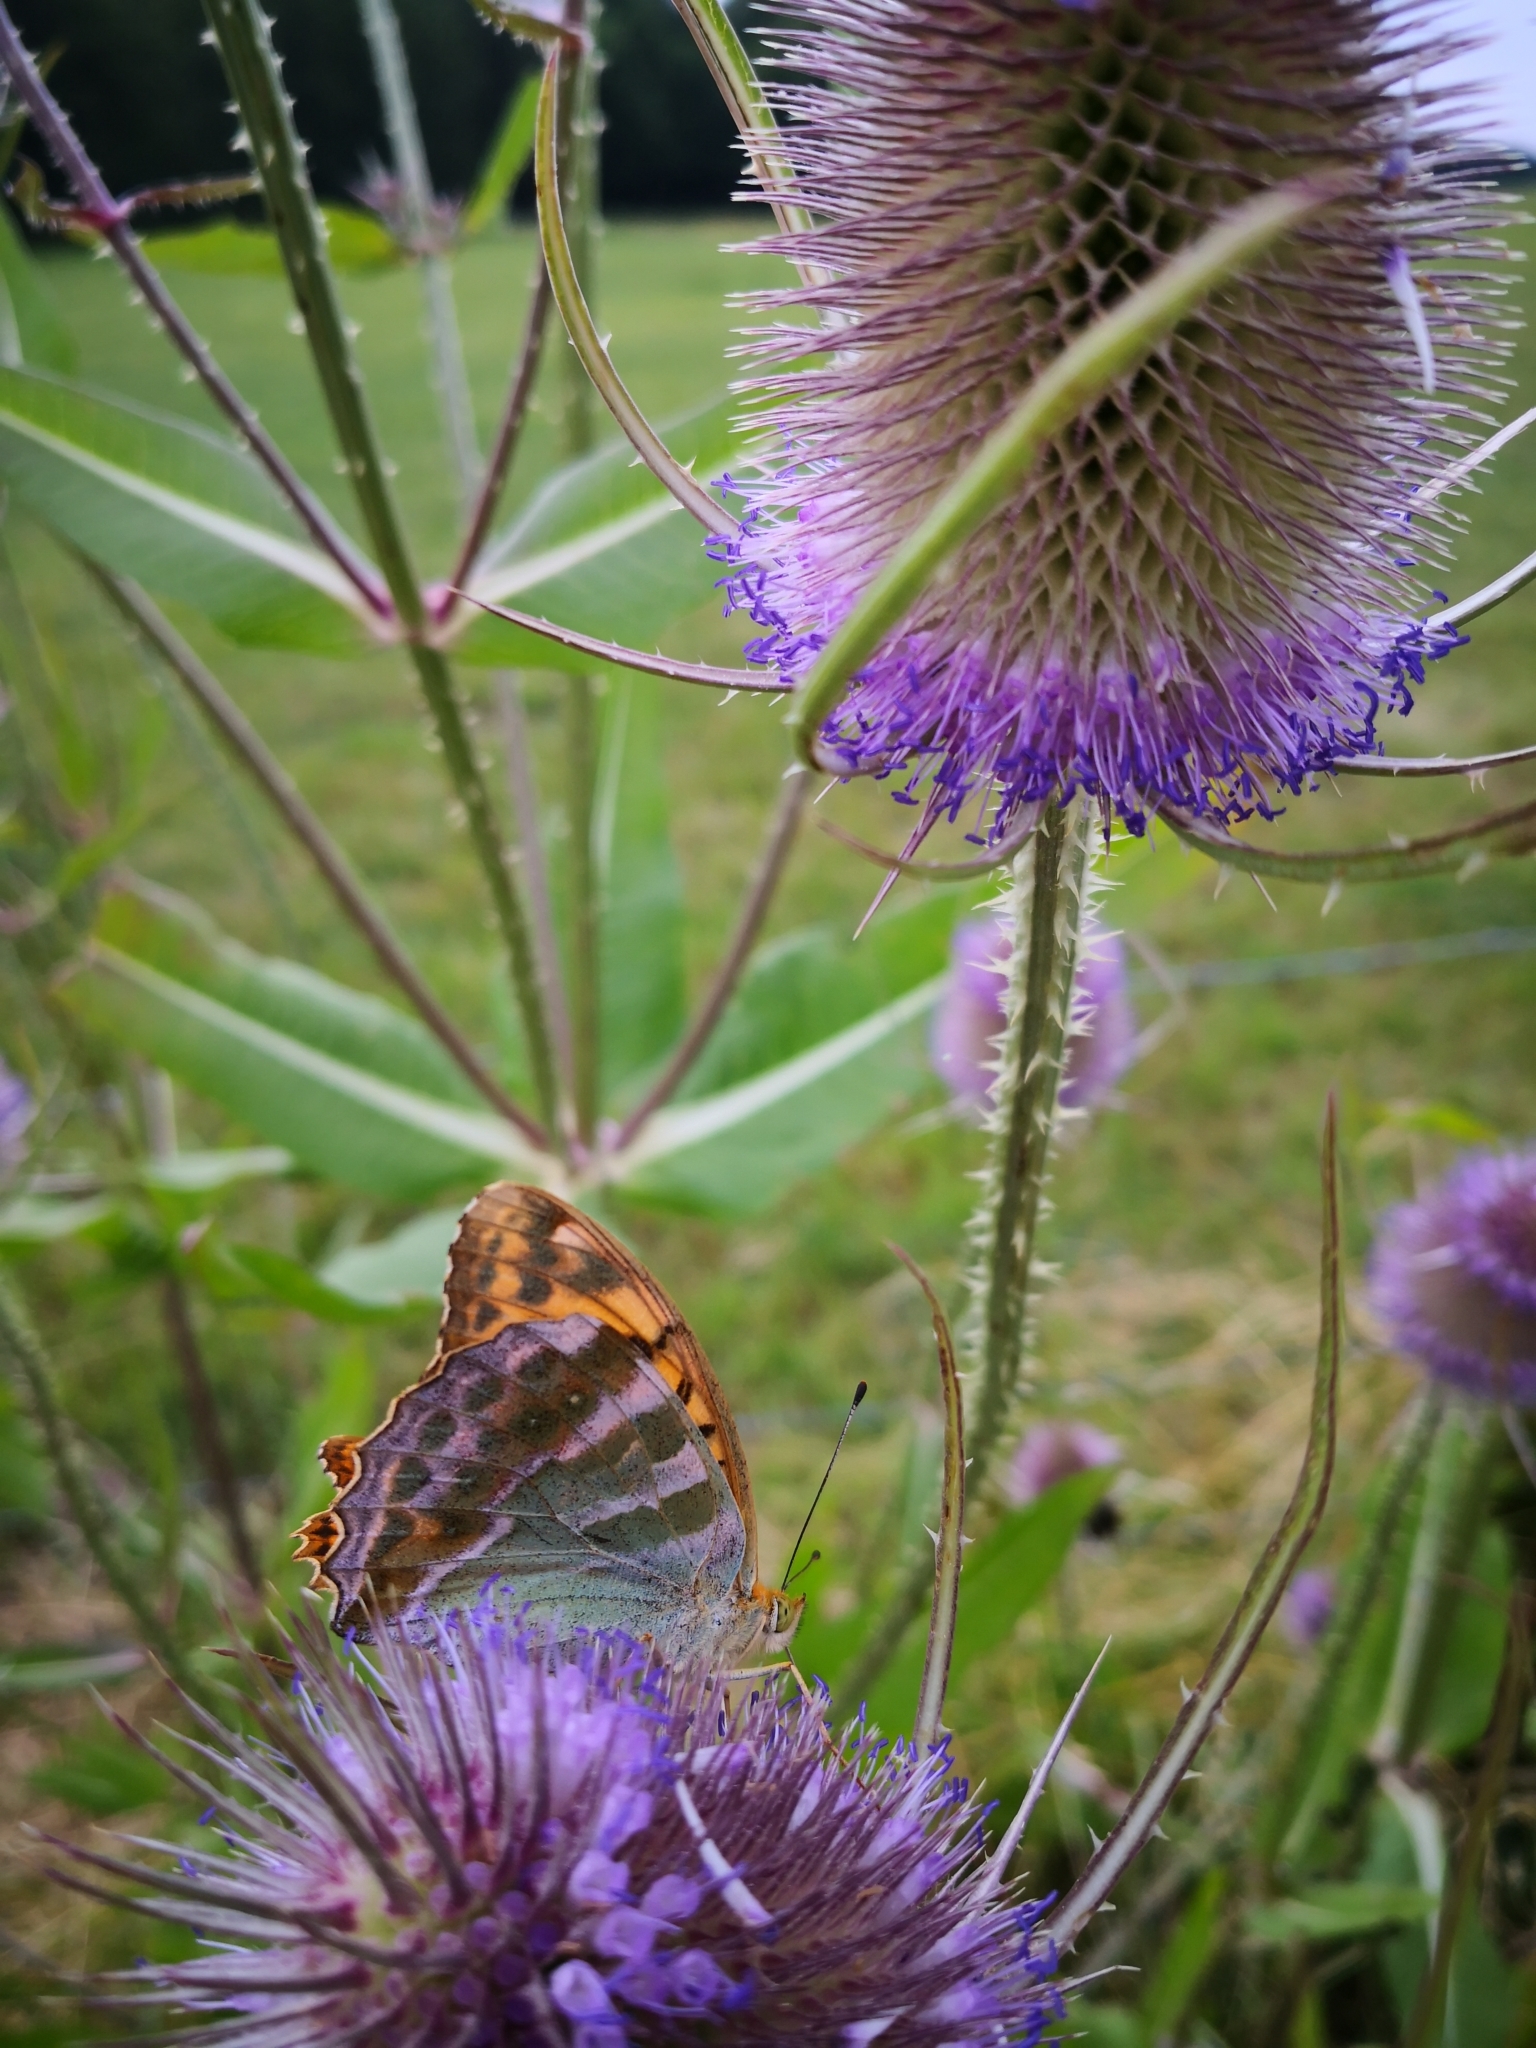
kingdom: Animalia
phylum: Arthropoda
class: Insecta
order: Lepidoptera
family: Nymphalidae
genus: Argynnis
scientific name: Argynnis paphia
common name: Silver-washed fritillary
